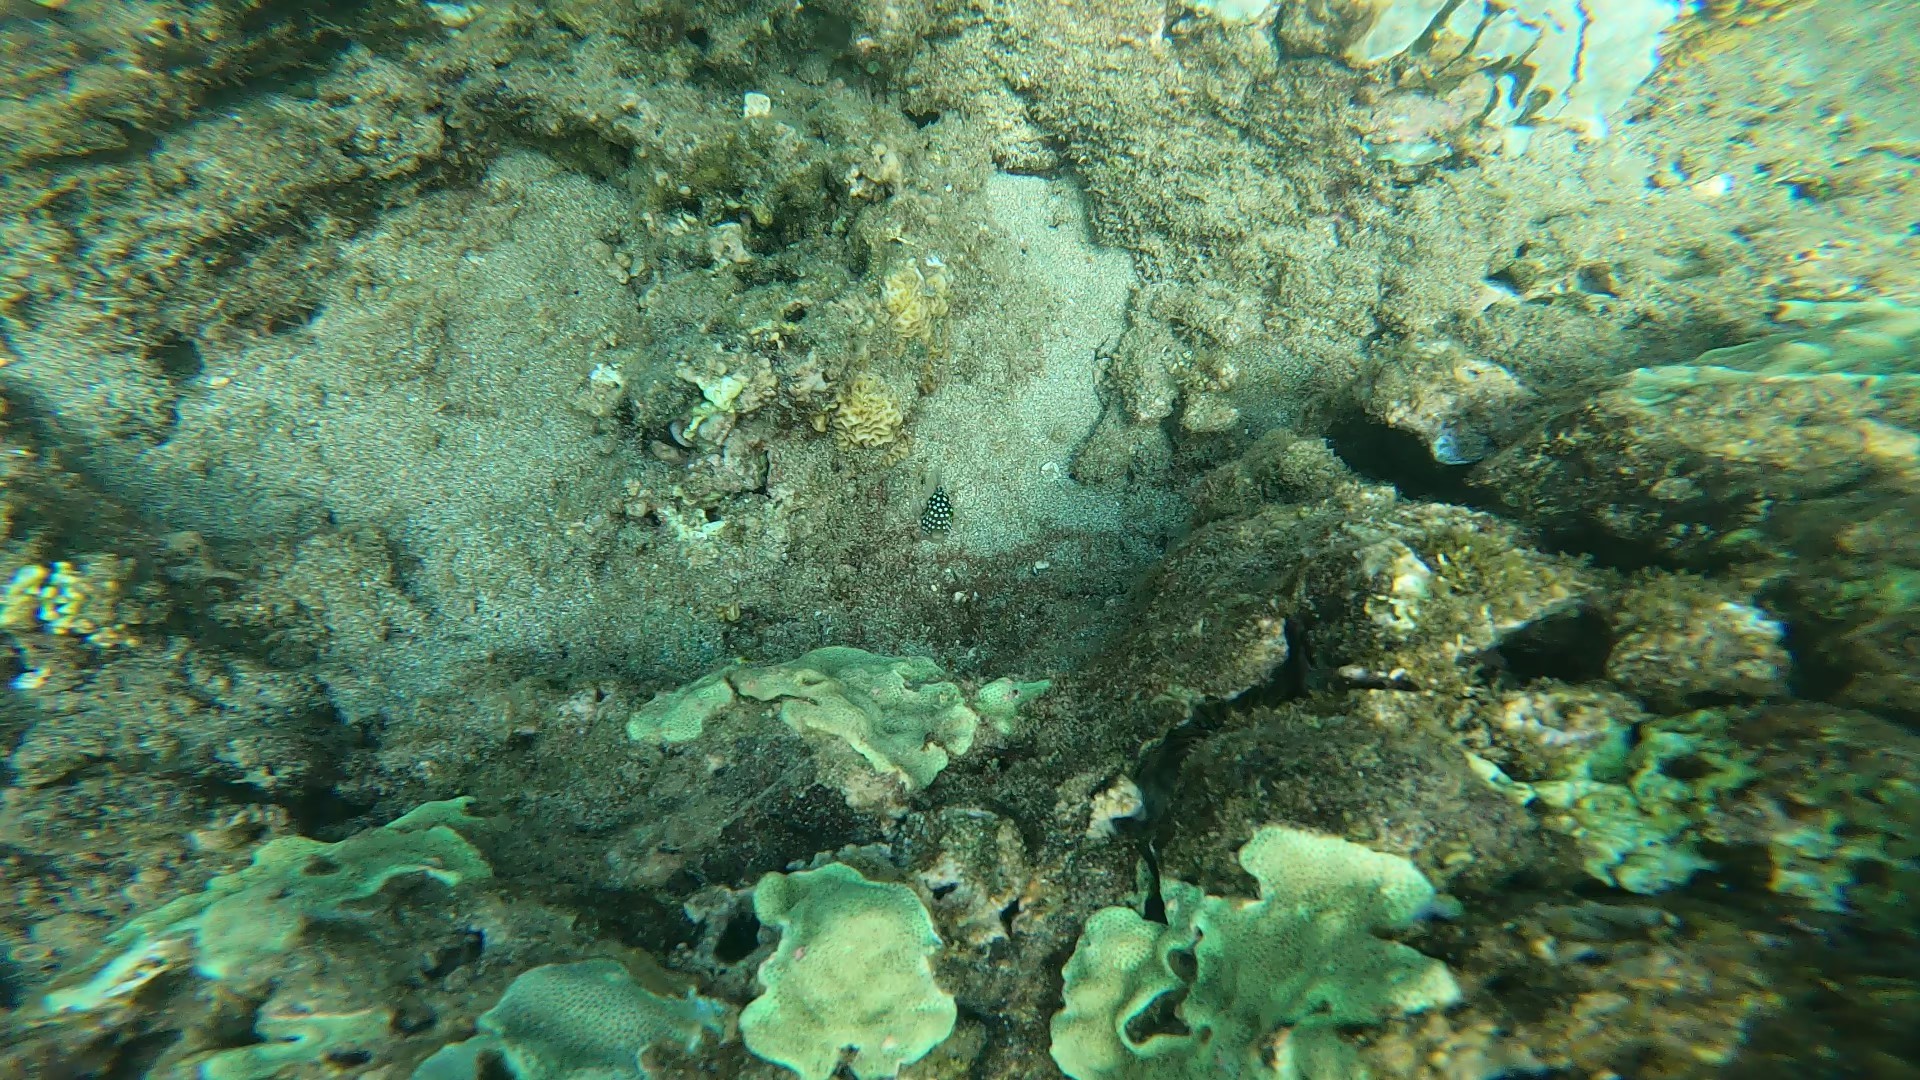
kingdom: Animalia
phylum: Chordata
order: Tetraodontiformes
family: Tetraodontidae
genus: Canthigaster
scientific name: Canthigaster jactator
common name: Hawaiian whitespotted toby
